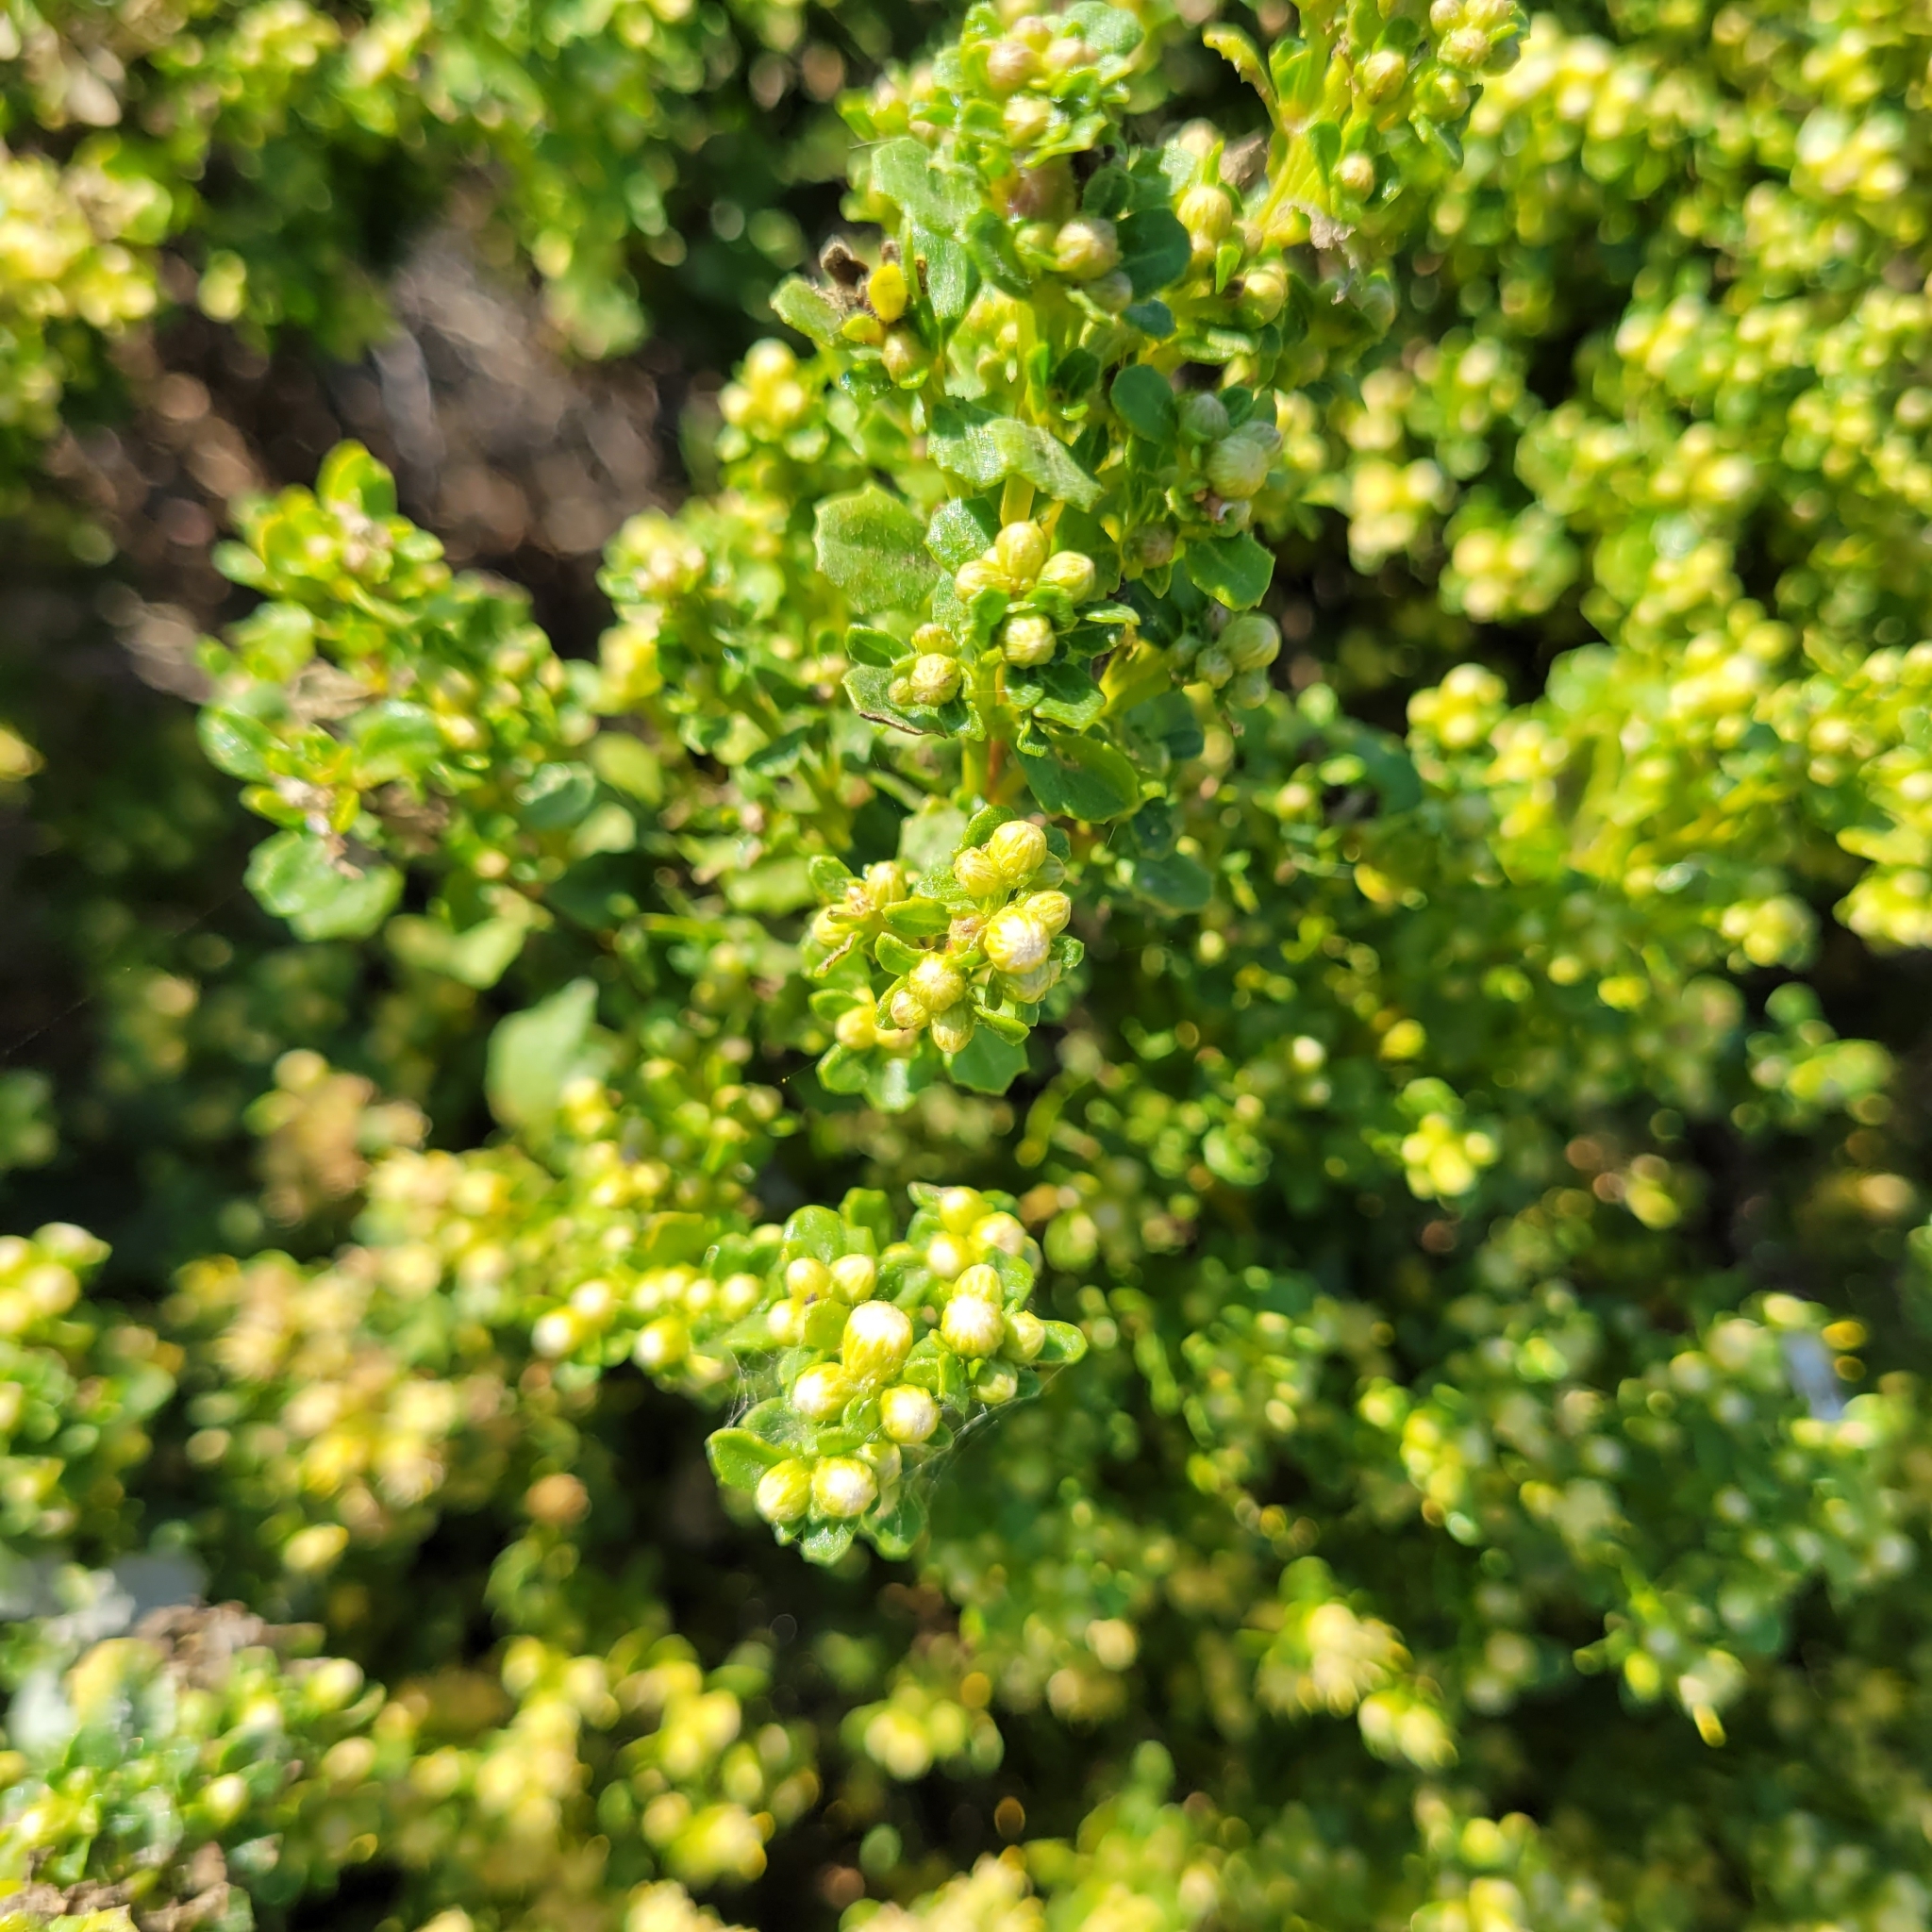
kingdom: Plantae
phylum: Tracheophyta
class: Magnoliopsida
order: Asterales
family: Asteraceae
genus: Baccharis
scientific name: Baccharis pilularis
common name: Coyotebrush
